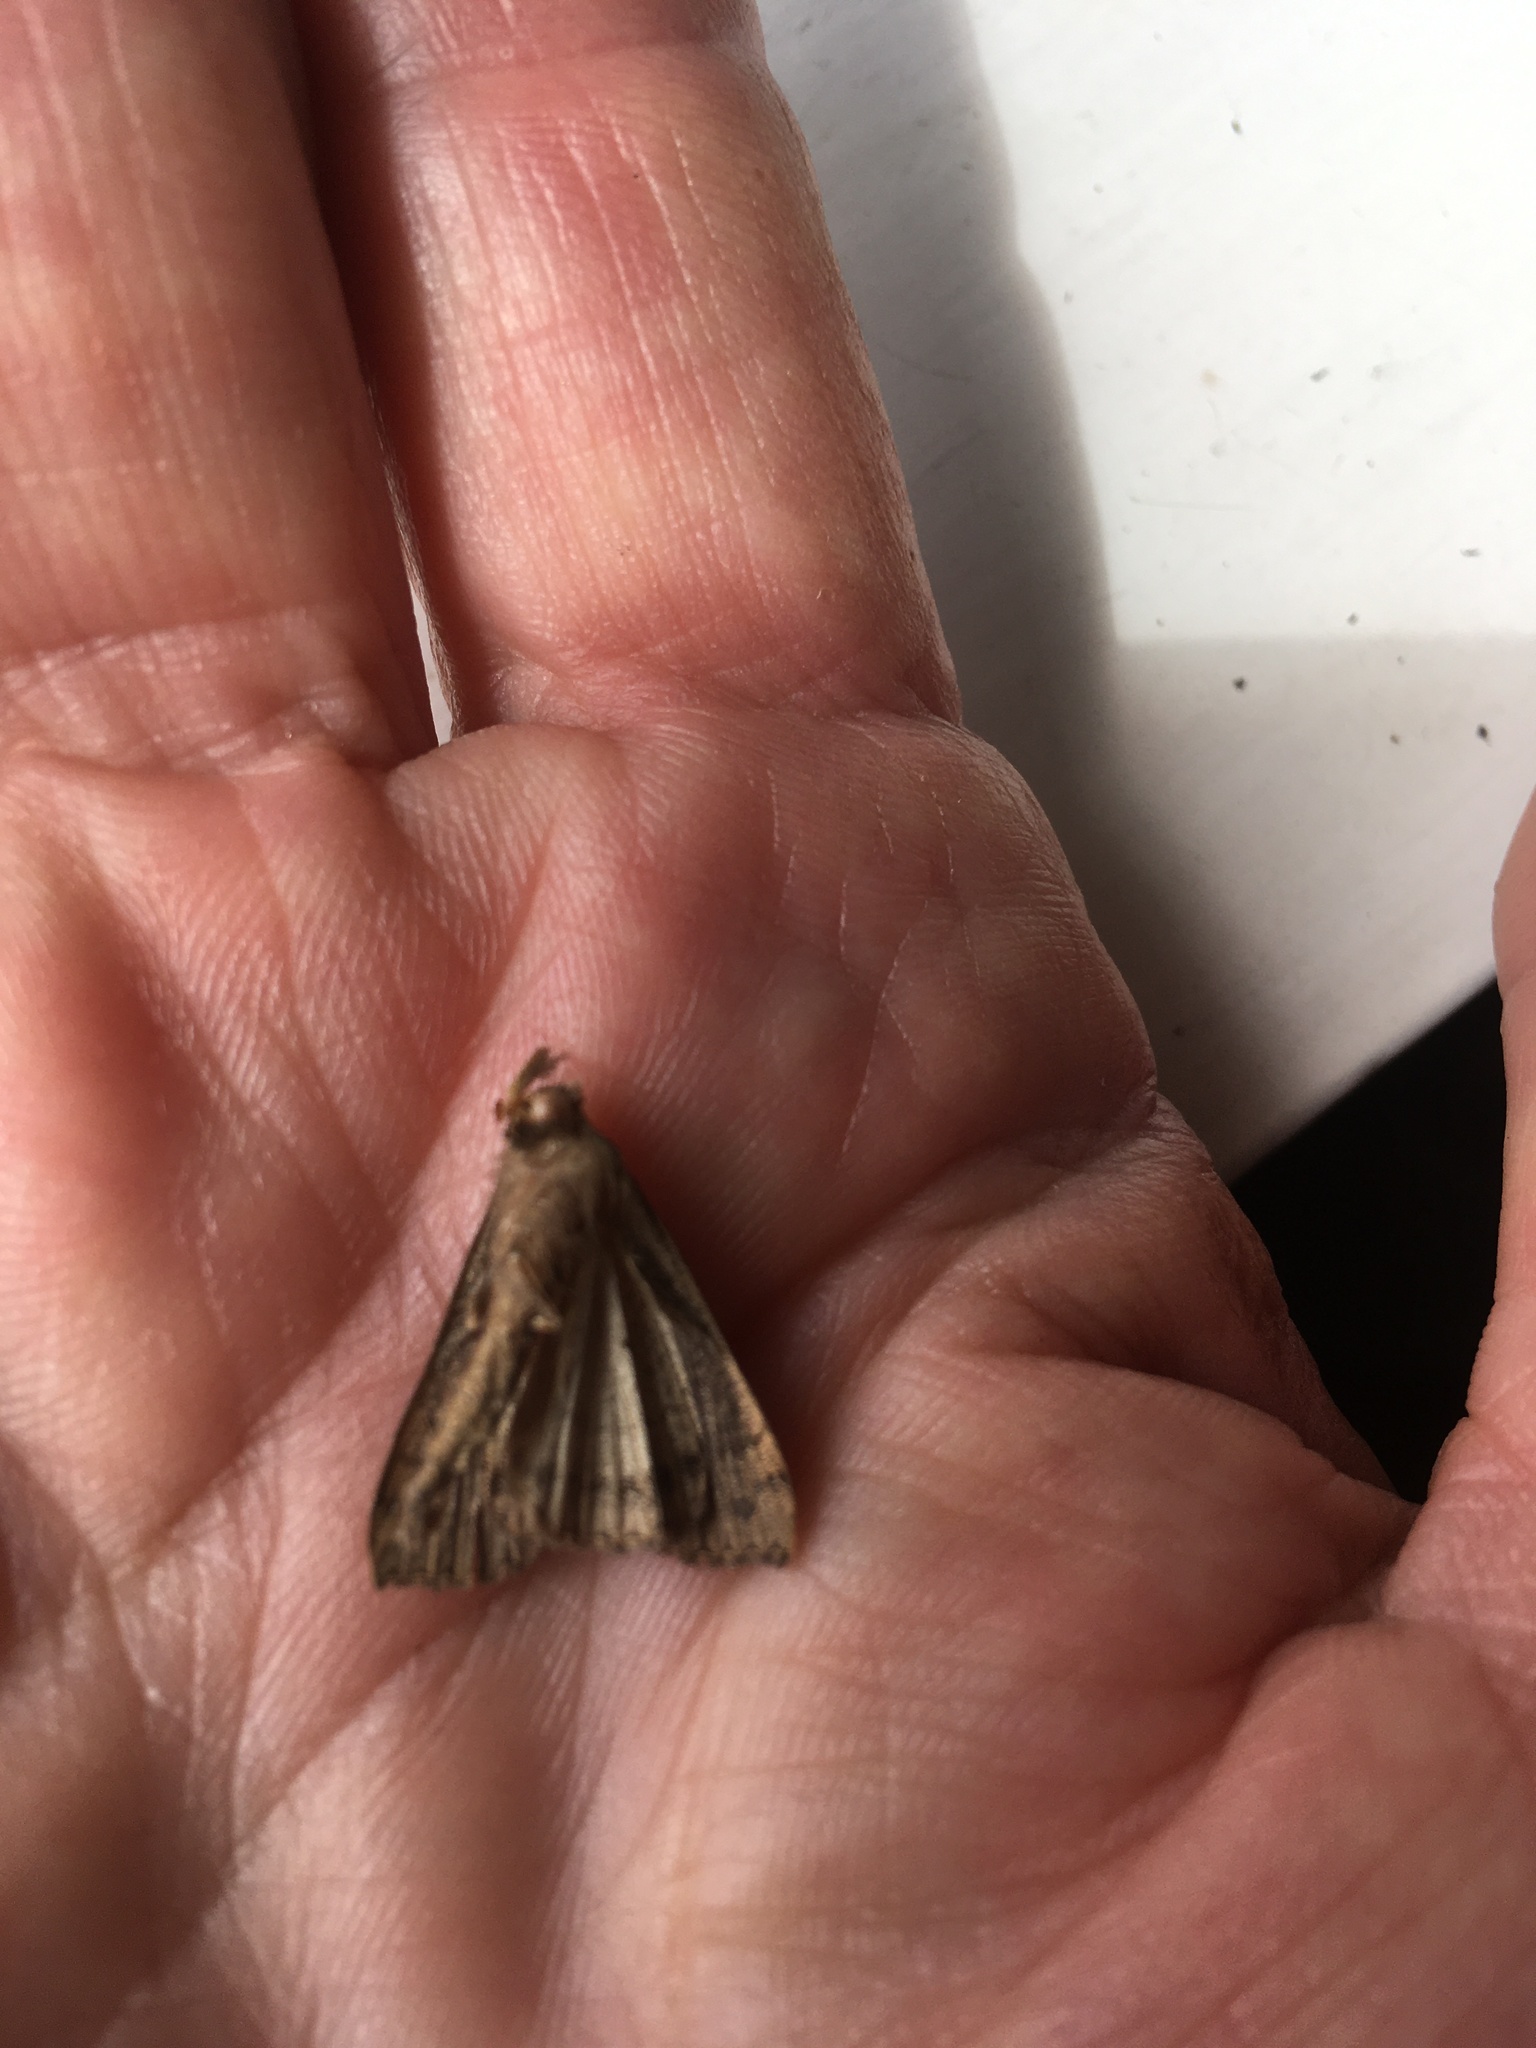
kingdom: Animalia
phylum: Arthropoda
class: Insecta
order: Lepidoptera
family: Erebidae
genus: Rhapsa
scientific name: Rhapsa scotosialis
